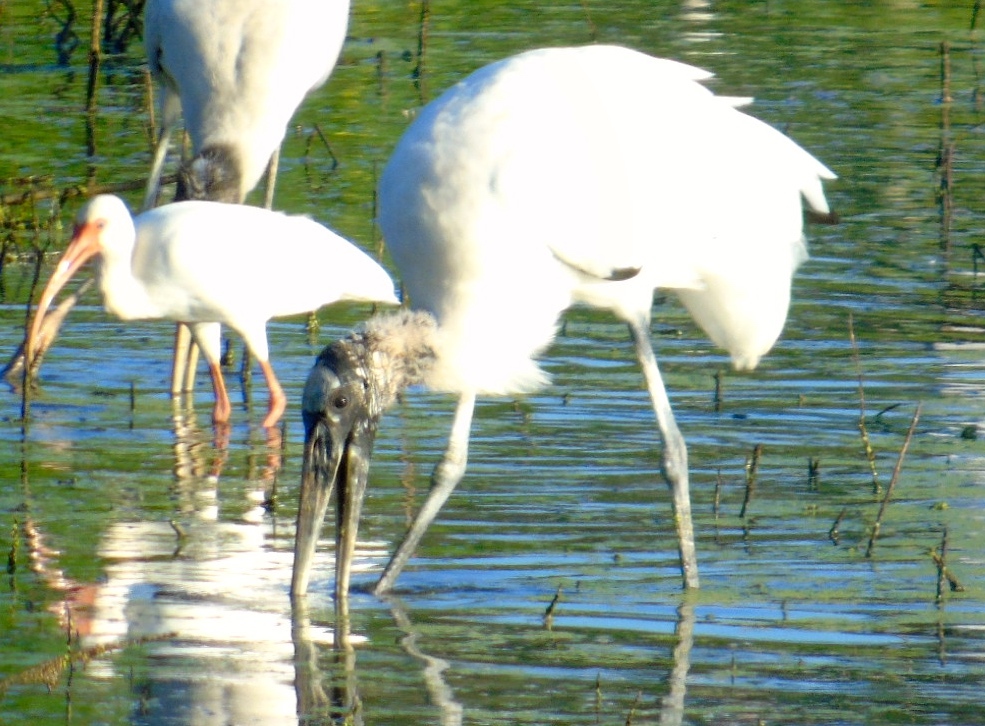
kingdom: Animalia
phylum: Chordata
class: Aves
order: Ciconiiformes
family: Ciconiidae
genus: Mycteria
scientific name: Mycteria americana
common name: Wood stork
